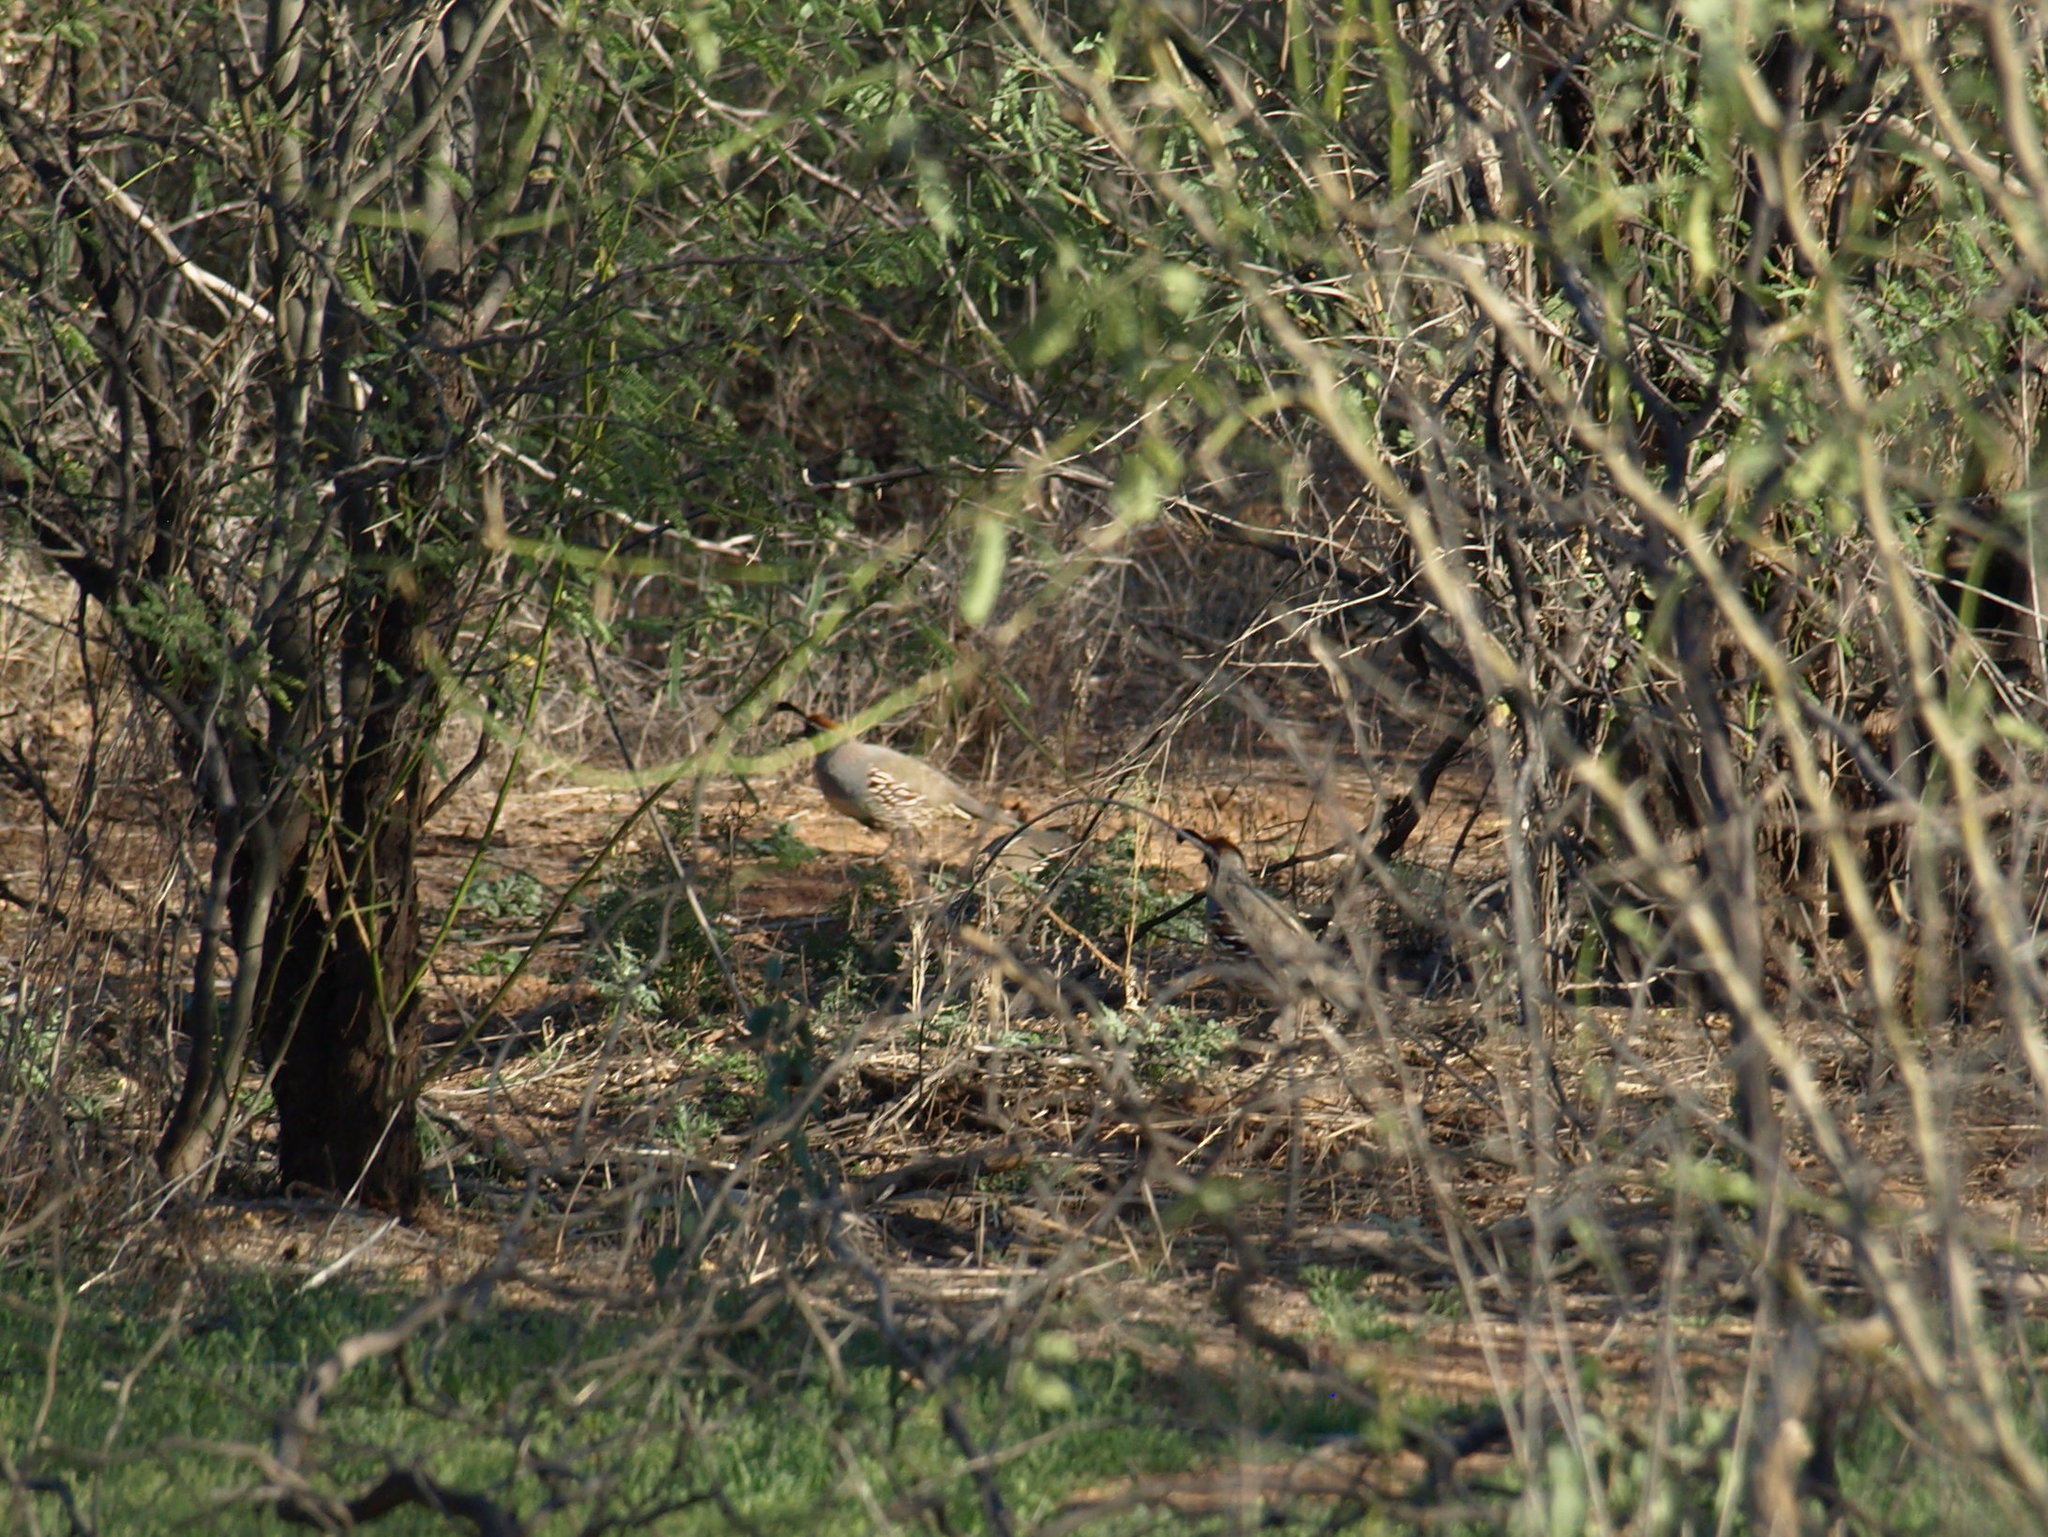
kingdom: Animalia
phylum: Chordata
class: Aves
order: Galliformes
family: Odontophoridae
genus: Callipepla
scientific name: Callipepla gambelii
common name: Gambel's quail
